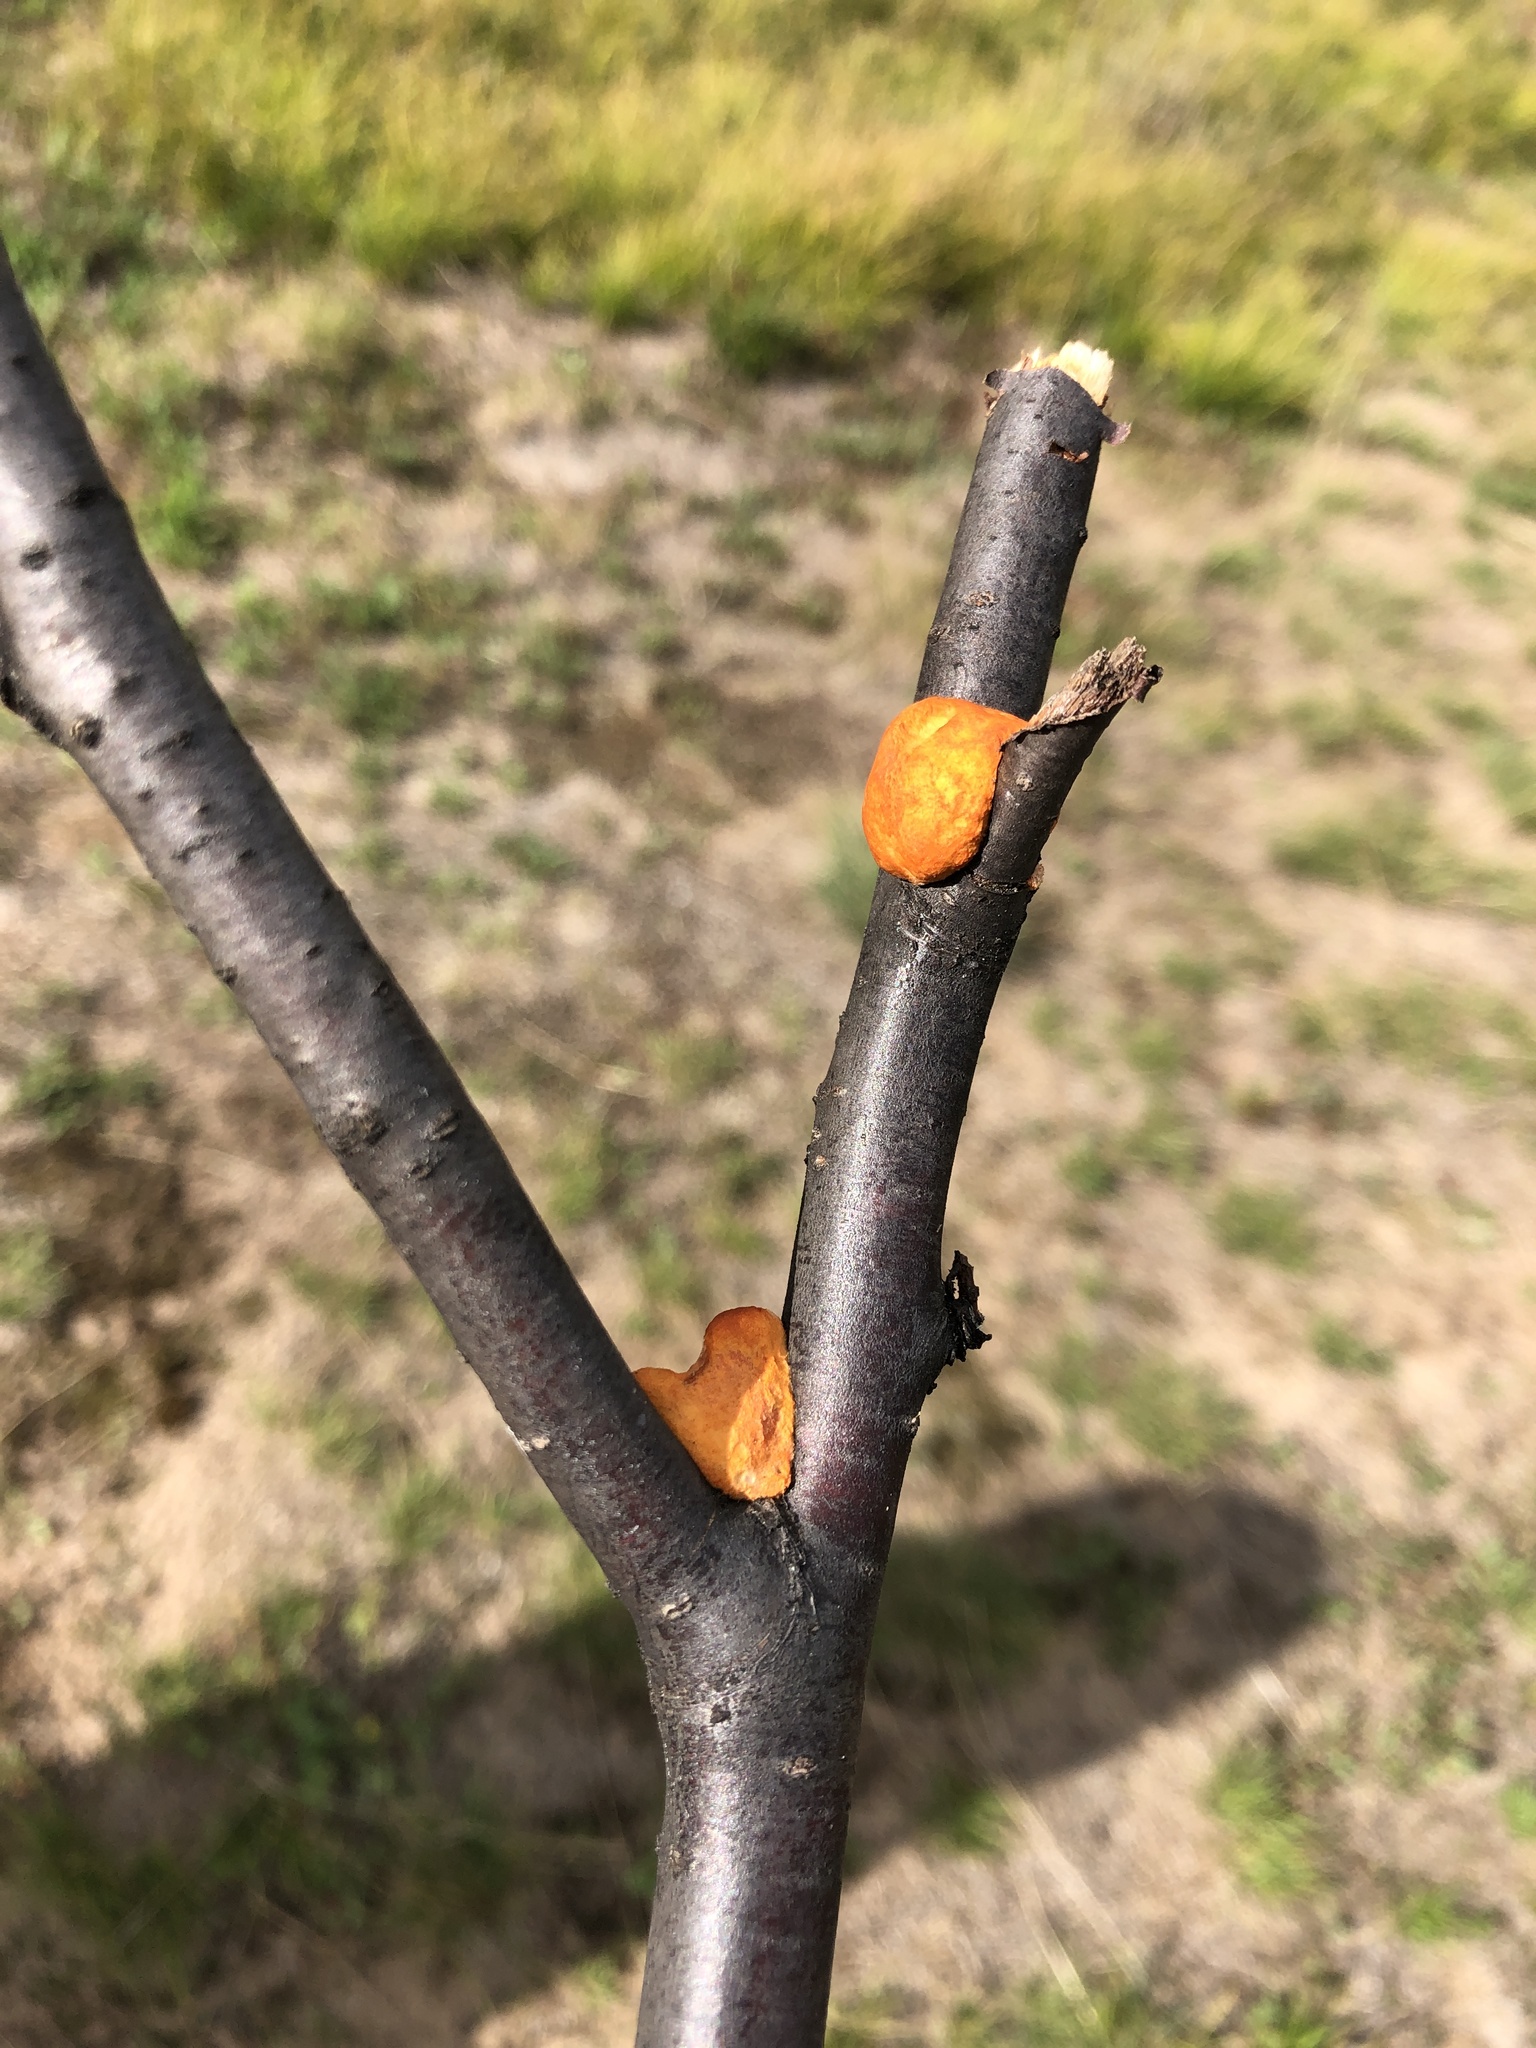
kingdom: Fungi
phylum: Basidiomycota
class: Agaricomycetes
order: Polyporales
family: Polyporaceae
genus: Trametes
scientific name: Trametes cinnabarina
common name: Northern cinnabar polypore
